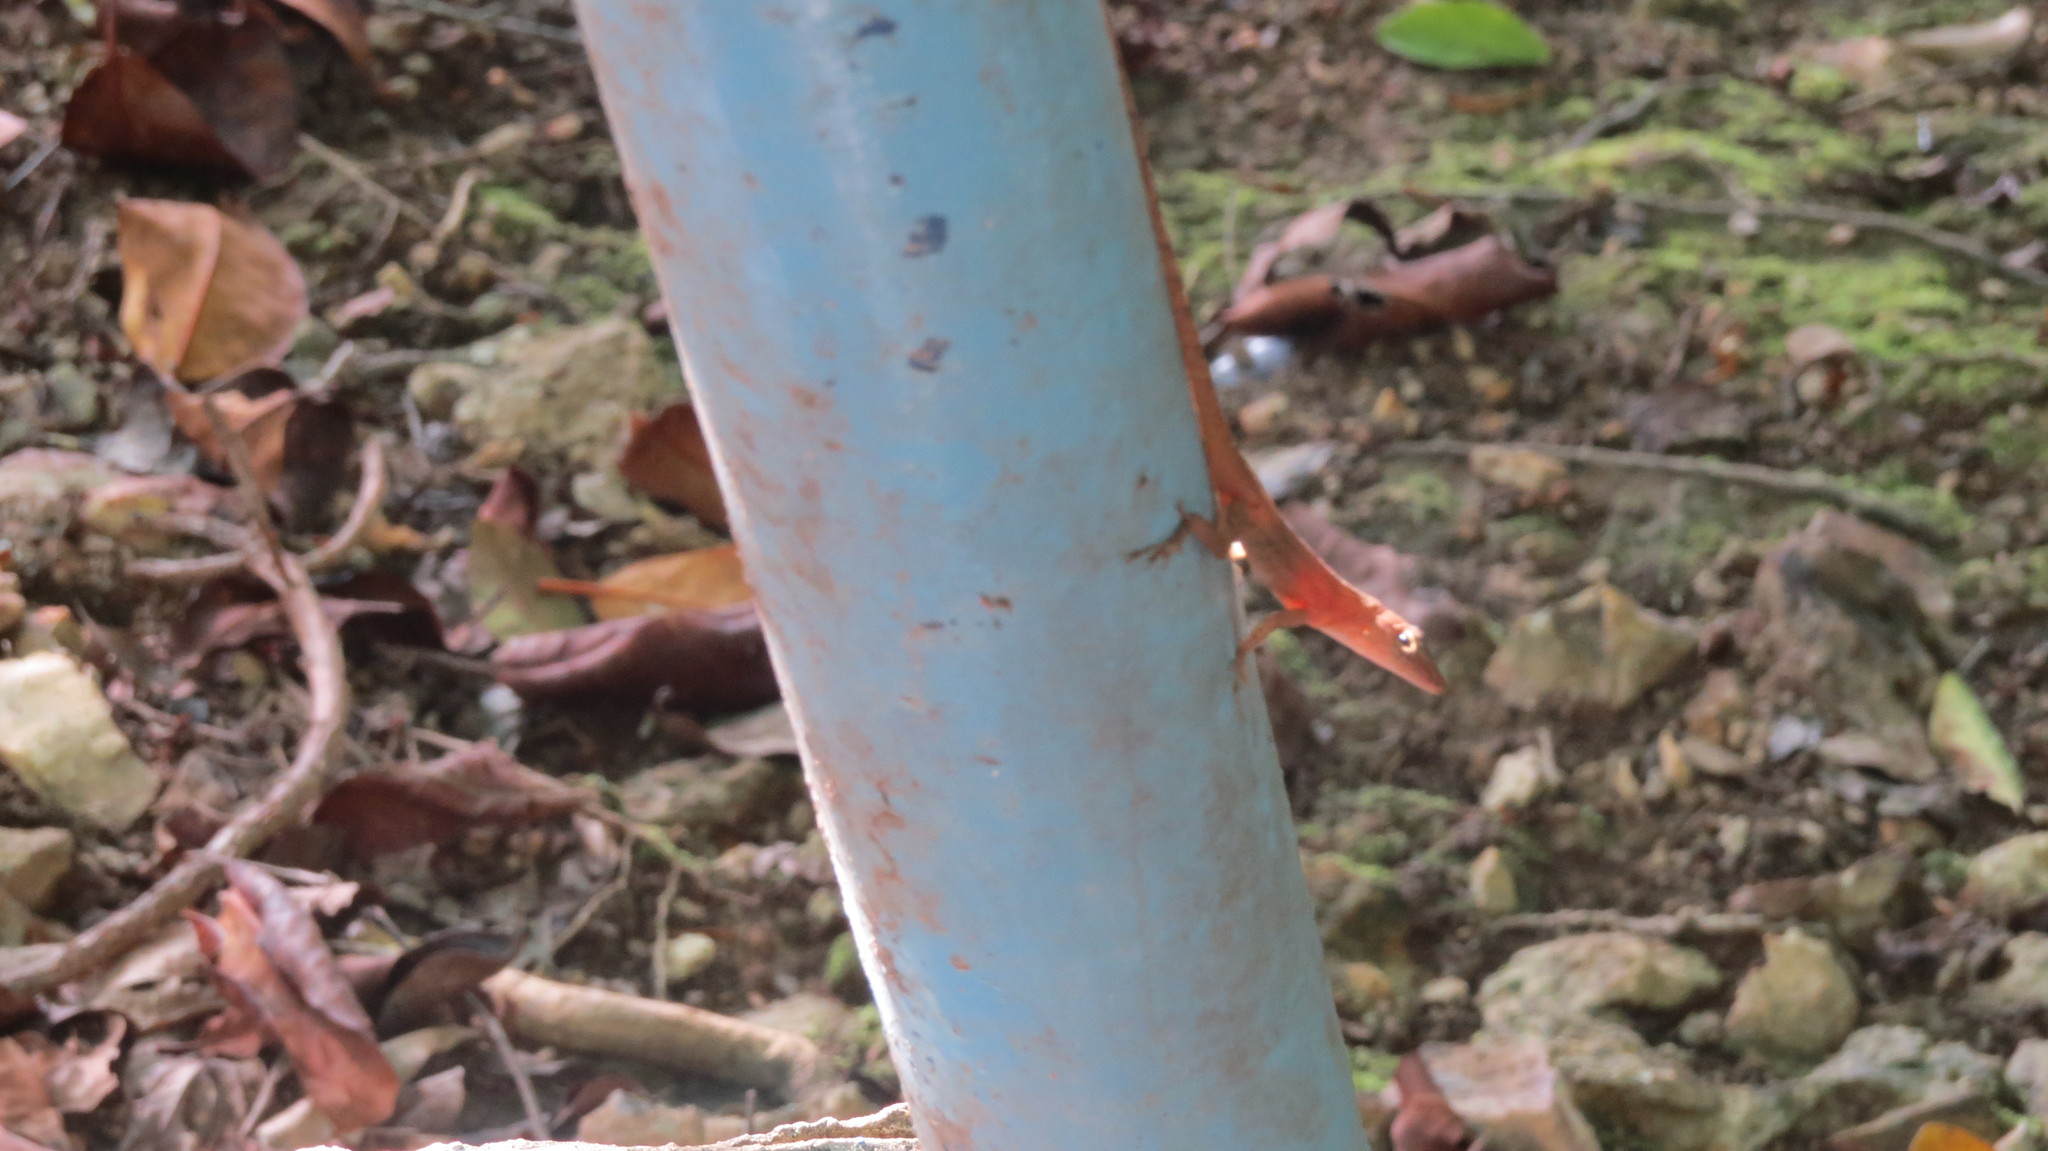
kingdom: Animalia
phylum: Chordata
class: Squamata
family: Dactyloidae
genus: Anolis
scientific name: Anolis pinchoti
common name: Crab cay anole
